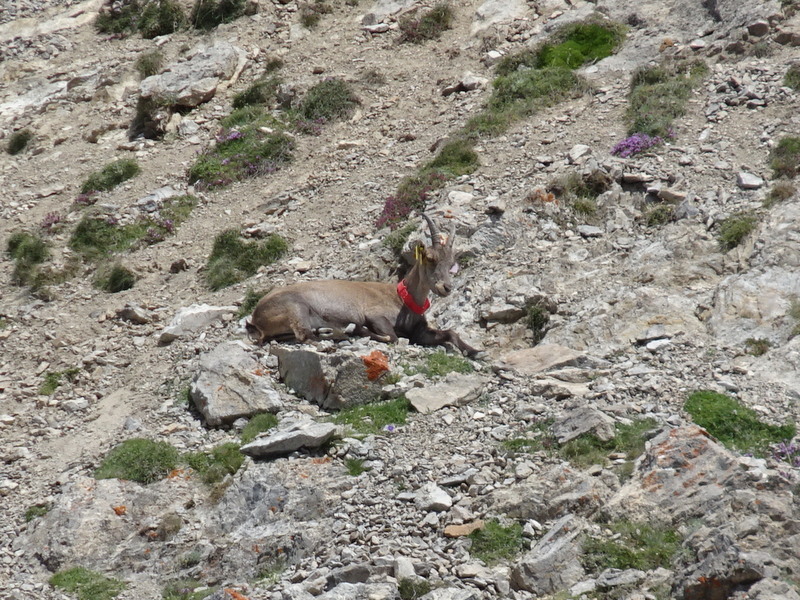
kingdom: Animalia
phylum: Chordata
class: Mammalia
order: Artiodactyla
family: Bovidae
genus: Capra
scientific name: Capra ibex
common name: Alpine ibex
